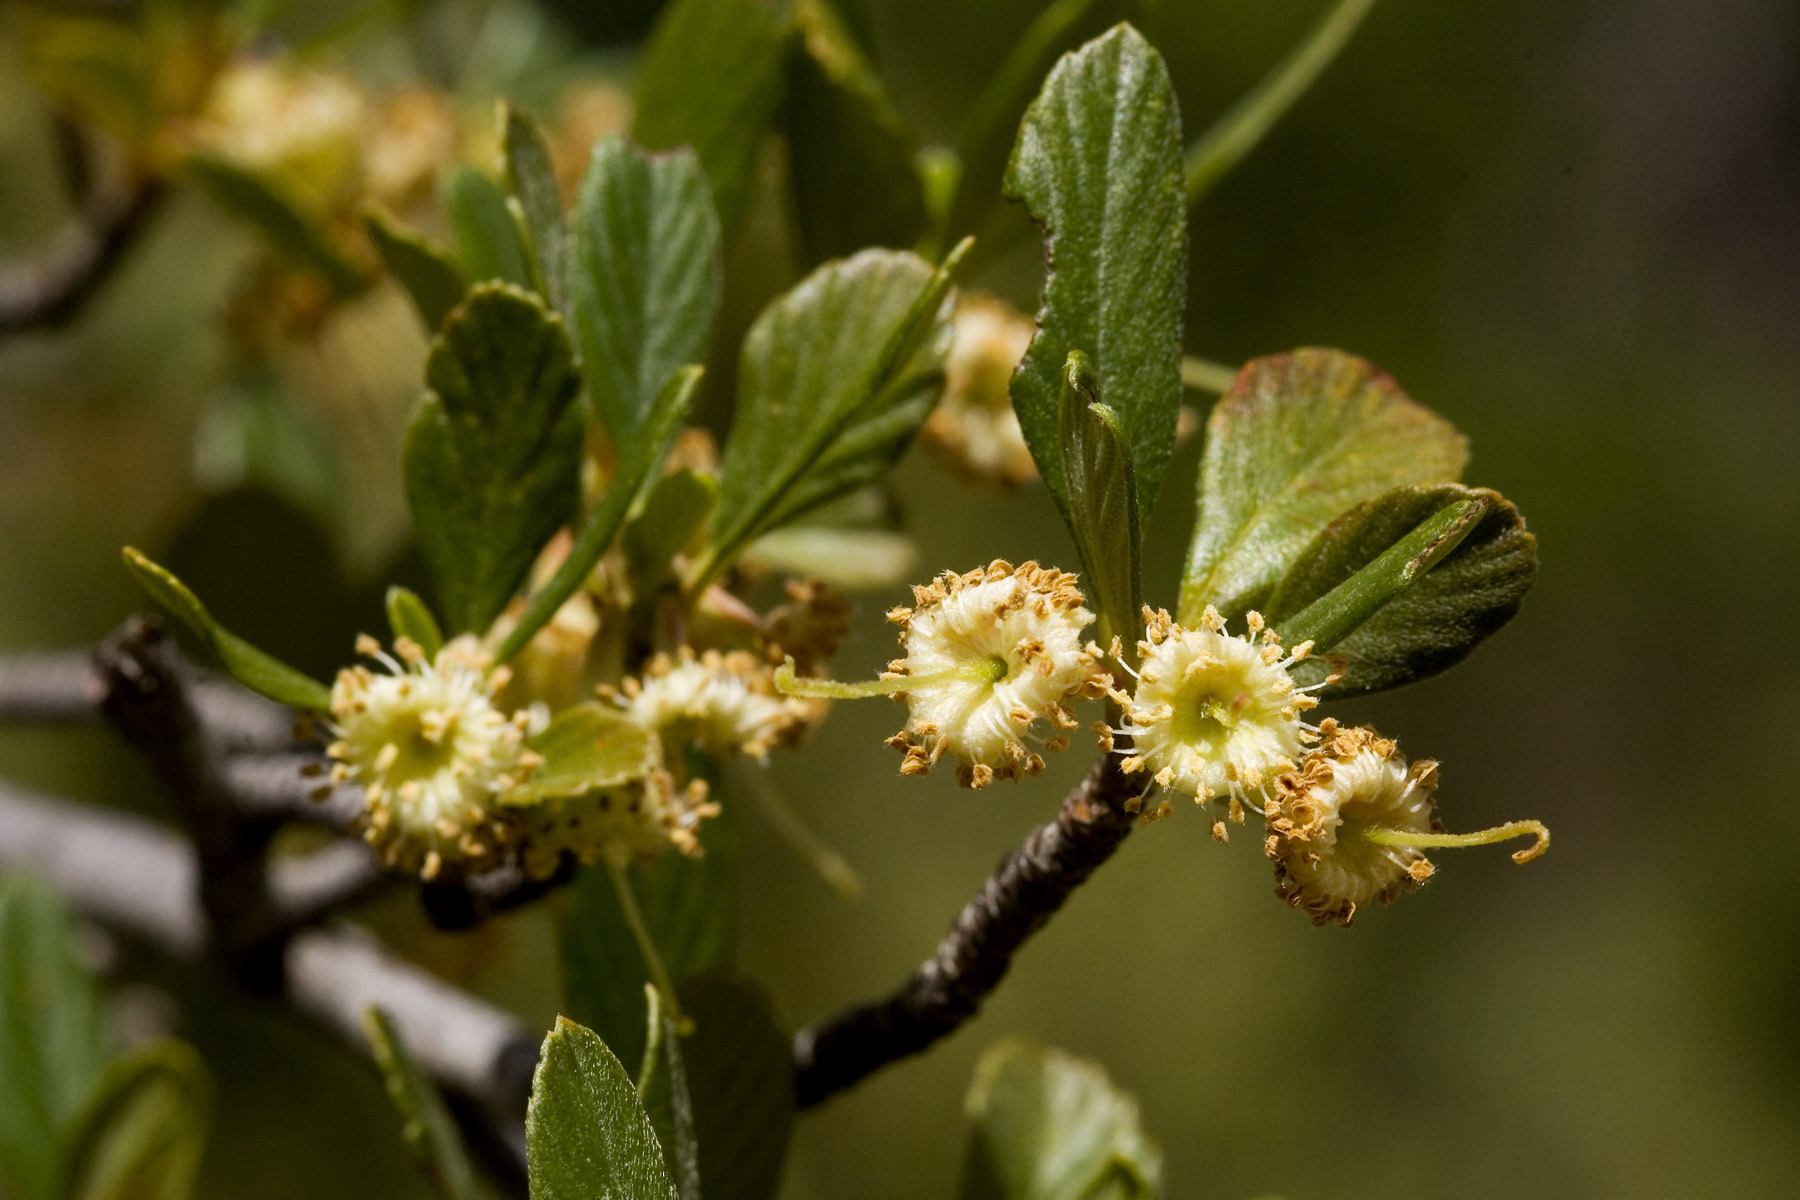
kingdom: Plantae
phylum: Tracheophyta
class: Magnoliopsida
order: Rosales
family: Rosaceae
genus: Cercocarpus
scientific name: Cercocarpus breviflorus
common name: Wright's mountain-mahogany
